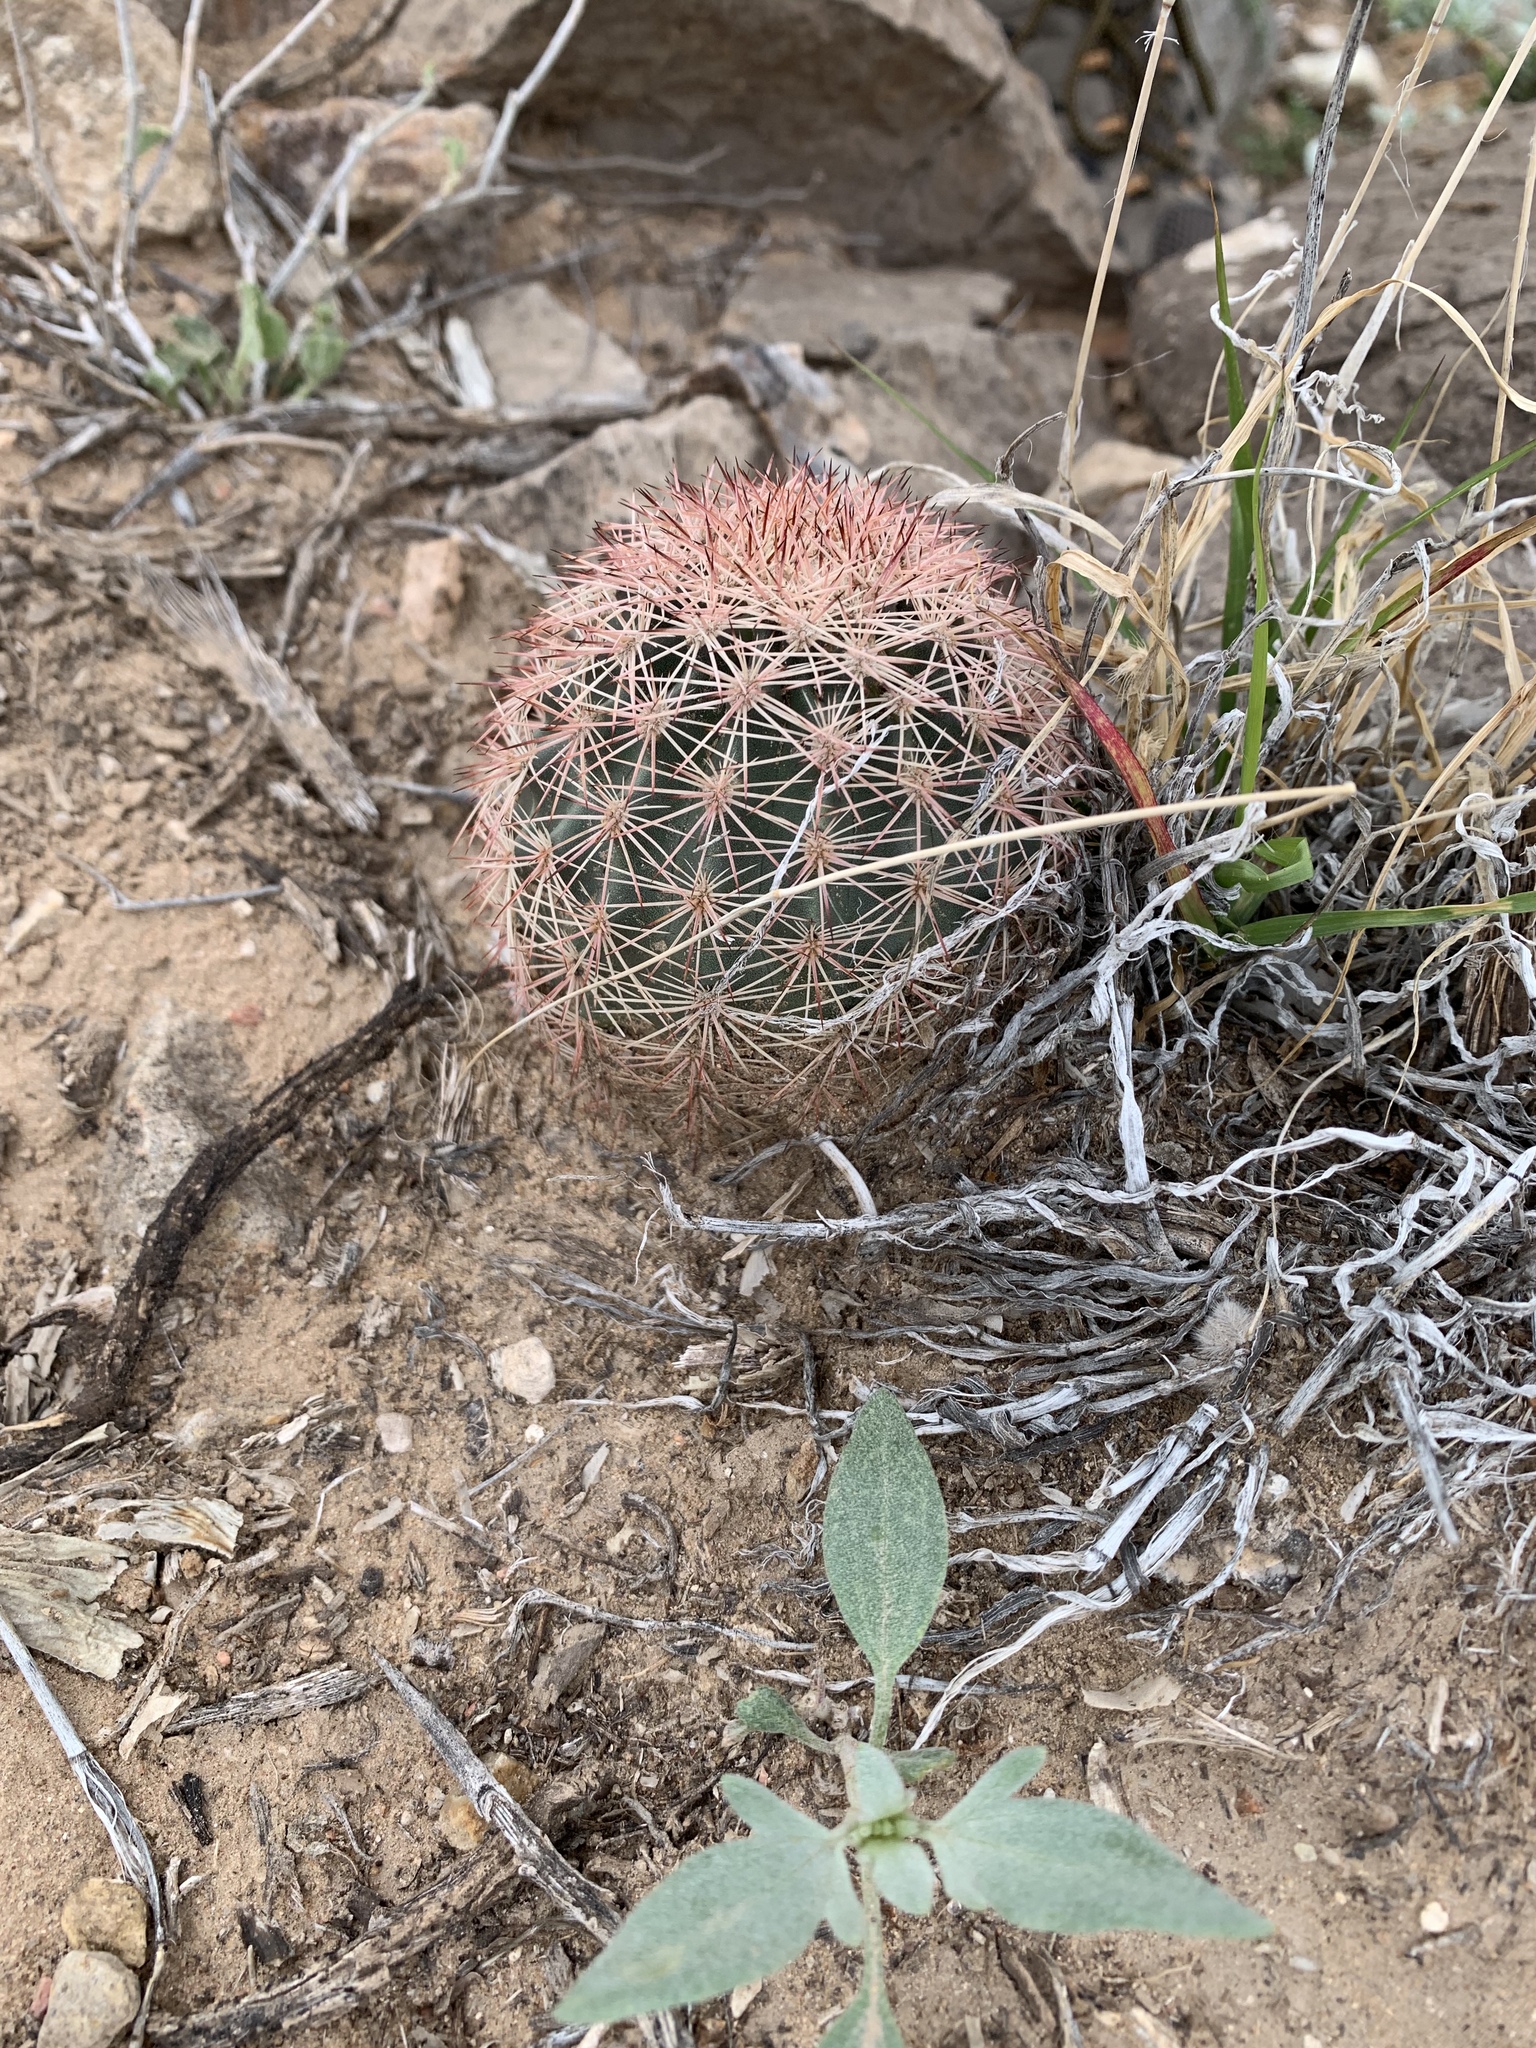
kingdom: Plantae
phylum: Tracheophyta
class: Magnoliopsida
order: Caryophyllales
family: Cactaceae
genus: Echinocereus
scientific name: Echinocereus dasyacanthus
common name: Spiny hedgehog cactus
